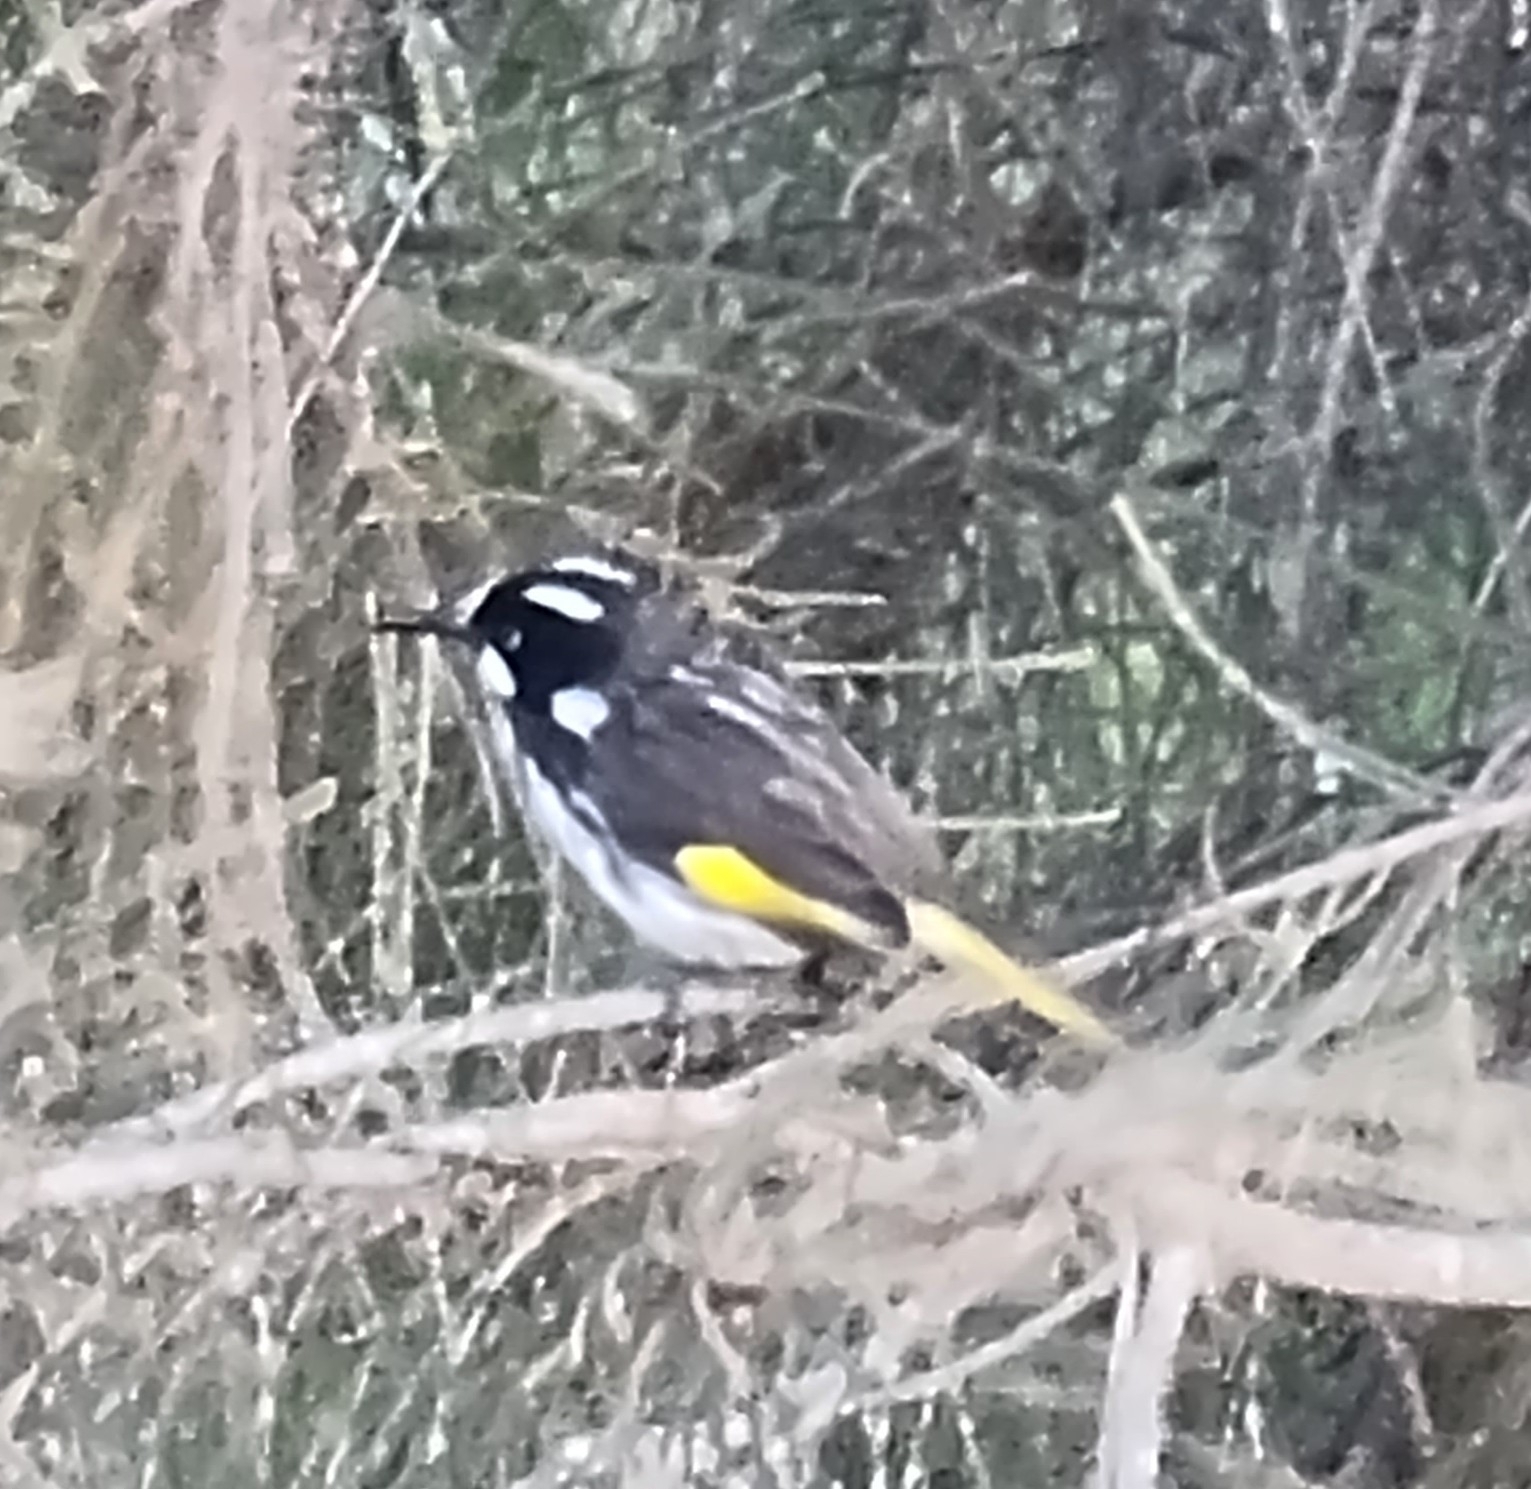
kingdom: Animalia
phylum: Chordata
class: Aves
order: Passeriformes
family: Meliphagidae
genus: Phylidonyris
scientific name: Phylidonyris novaehollandiae
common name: New holland honeyeater
